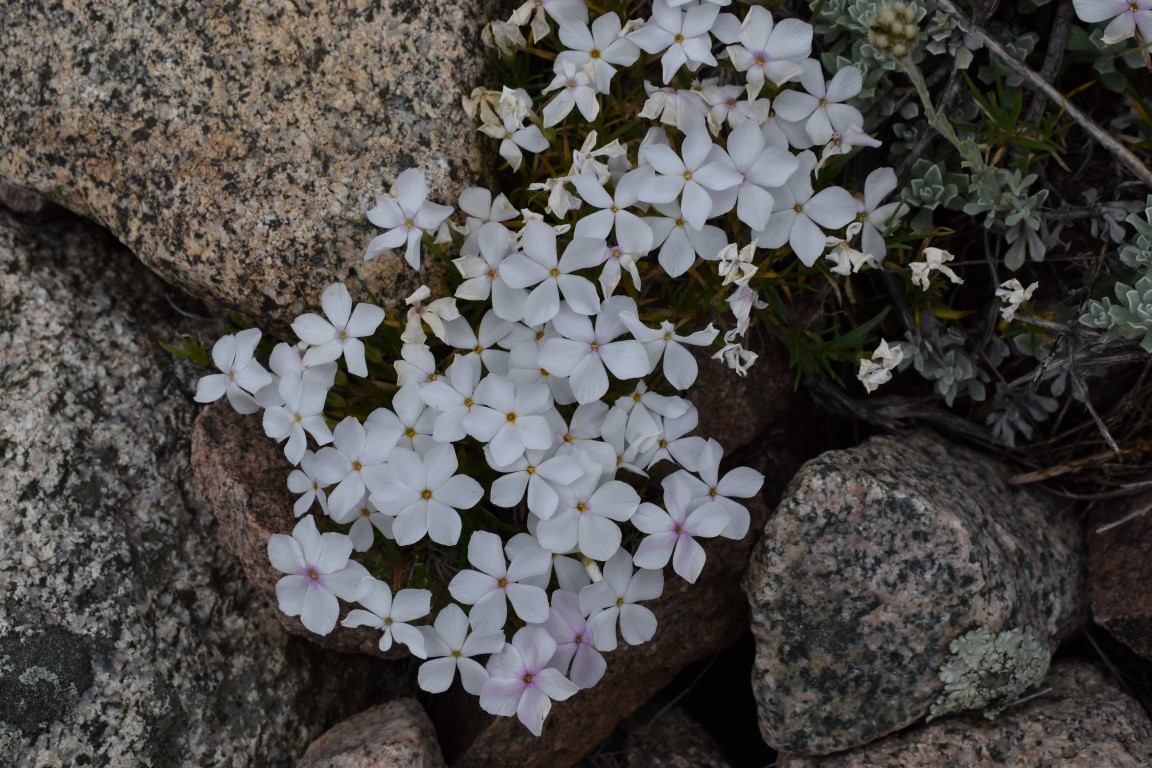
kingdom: Plantae
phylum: Tracheophyta
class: Magnoliopsida
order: Ericales
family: Polemoniaceae
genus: Phlox
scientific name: Phlox multiflora
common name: Rocky mountain phlox
